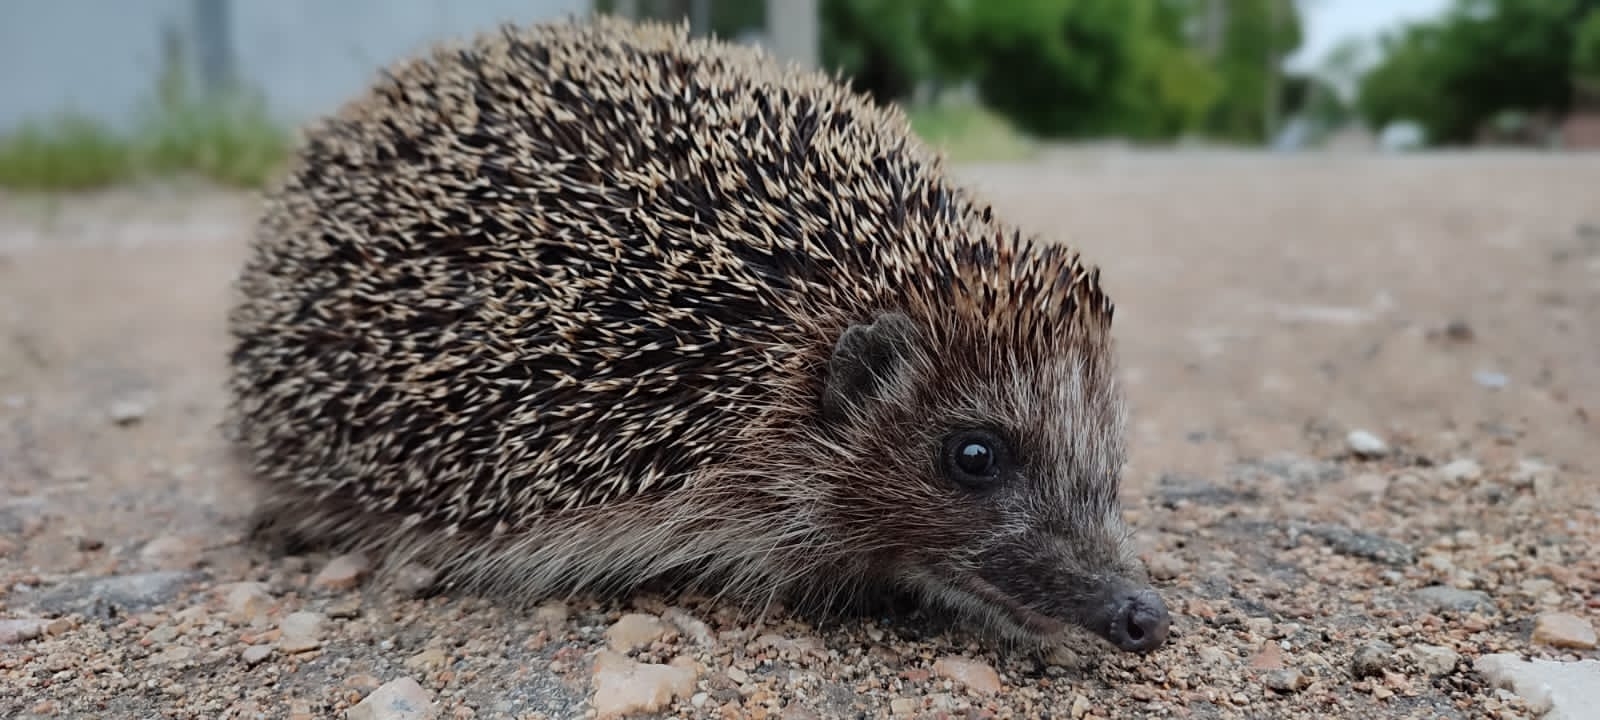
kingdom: Animalia
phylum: Chordata
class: Mammalia
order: Erinaceomorpha
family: Erinaceidae
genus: Erinaceus
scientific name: Erinaceus roumanicus
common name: Northern white-breasted hedgehog
